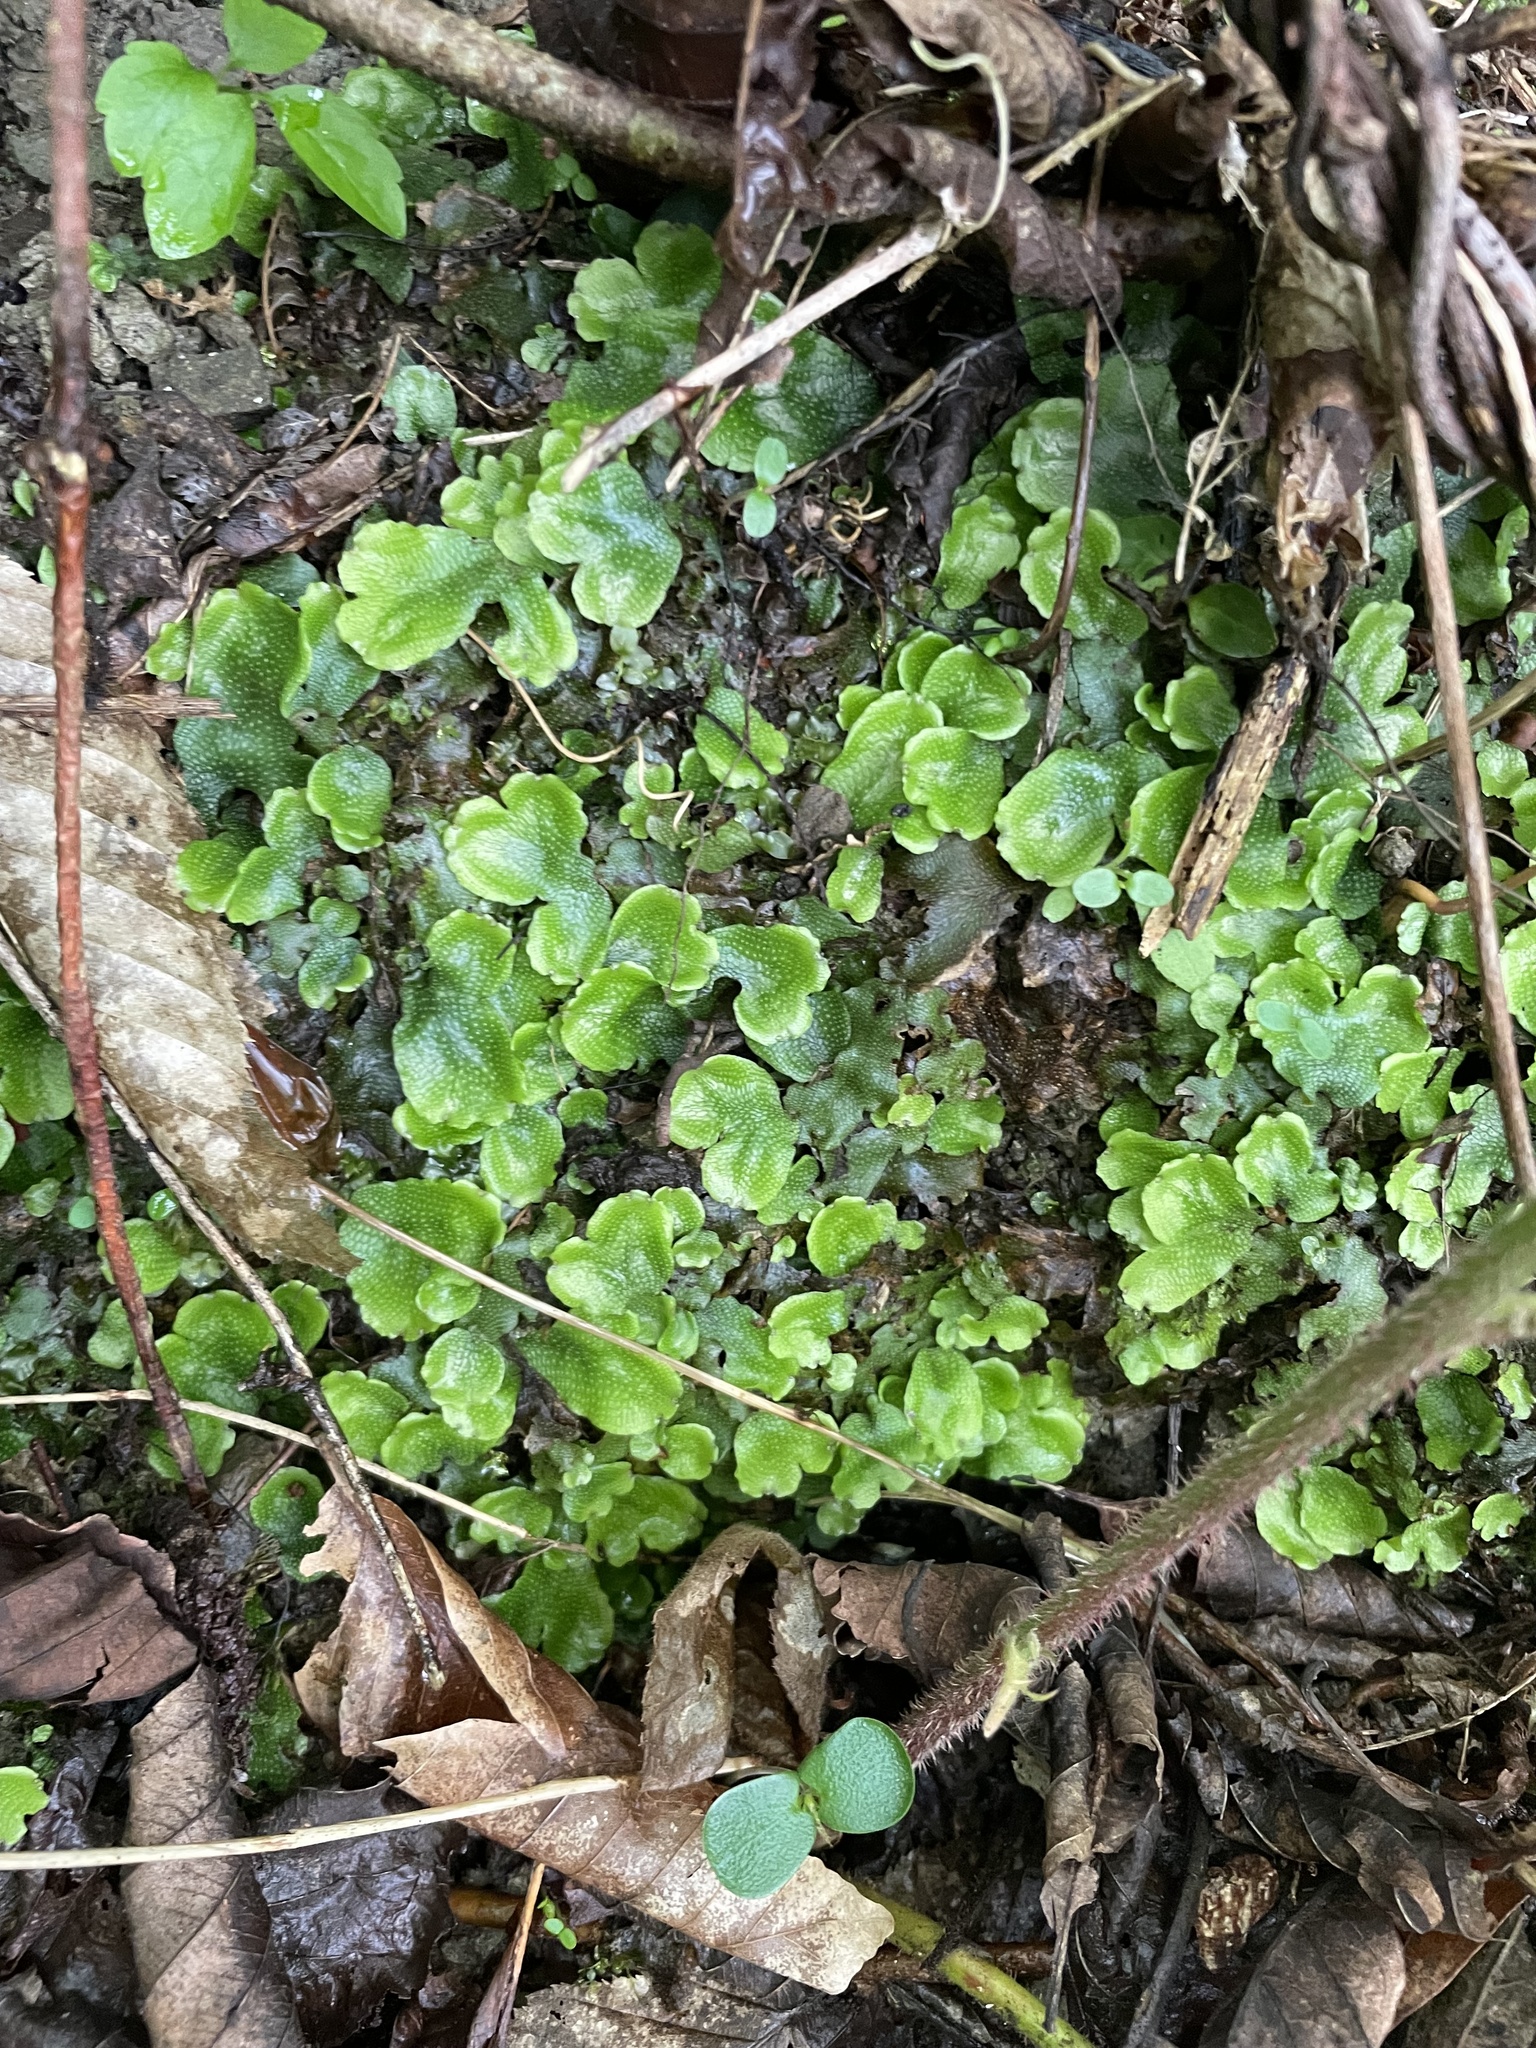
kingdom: Plantae
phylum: Marchantiophyta
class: Marchantiopsida
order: Marchantiales
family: Conocephalaceae
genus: Conocephalum
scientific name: Conocephalum conicum
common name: Great scented liverwort
